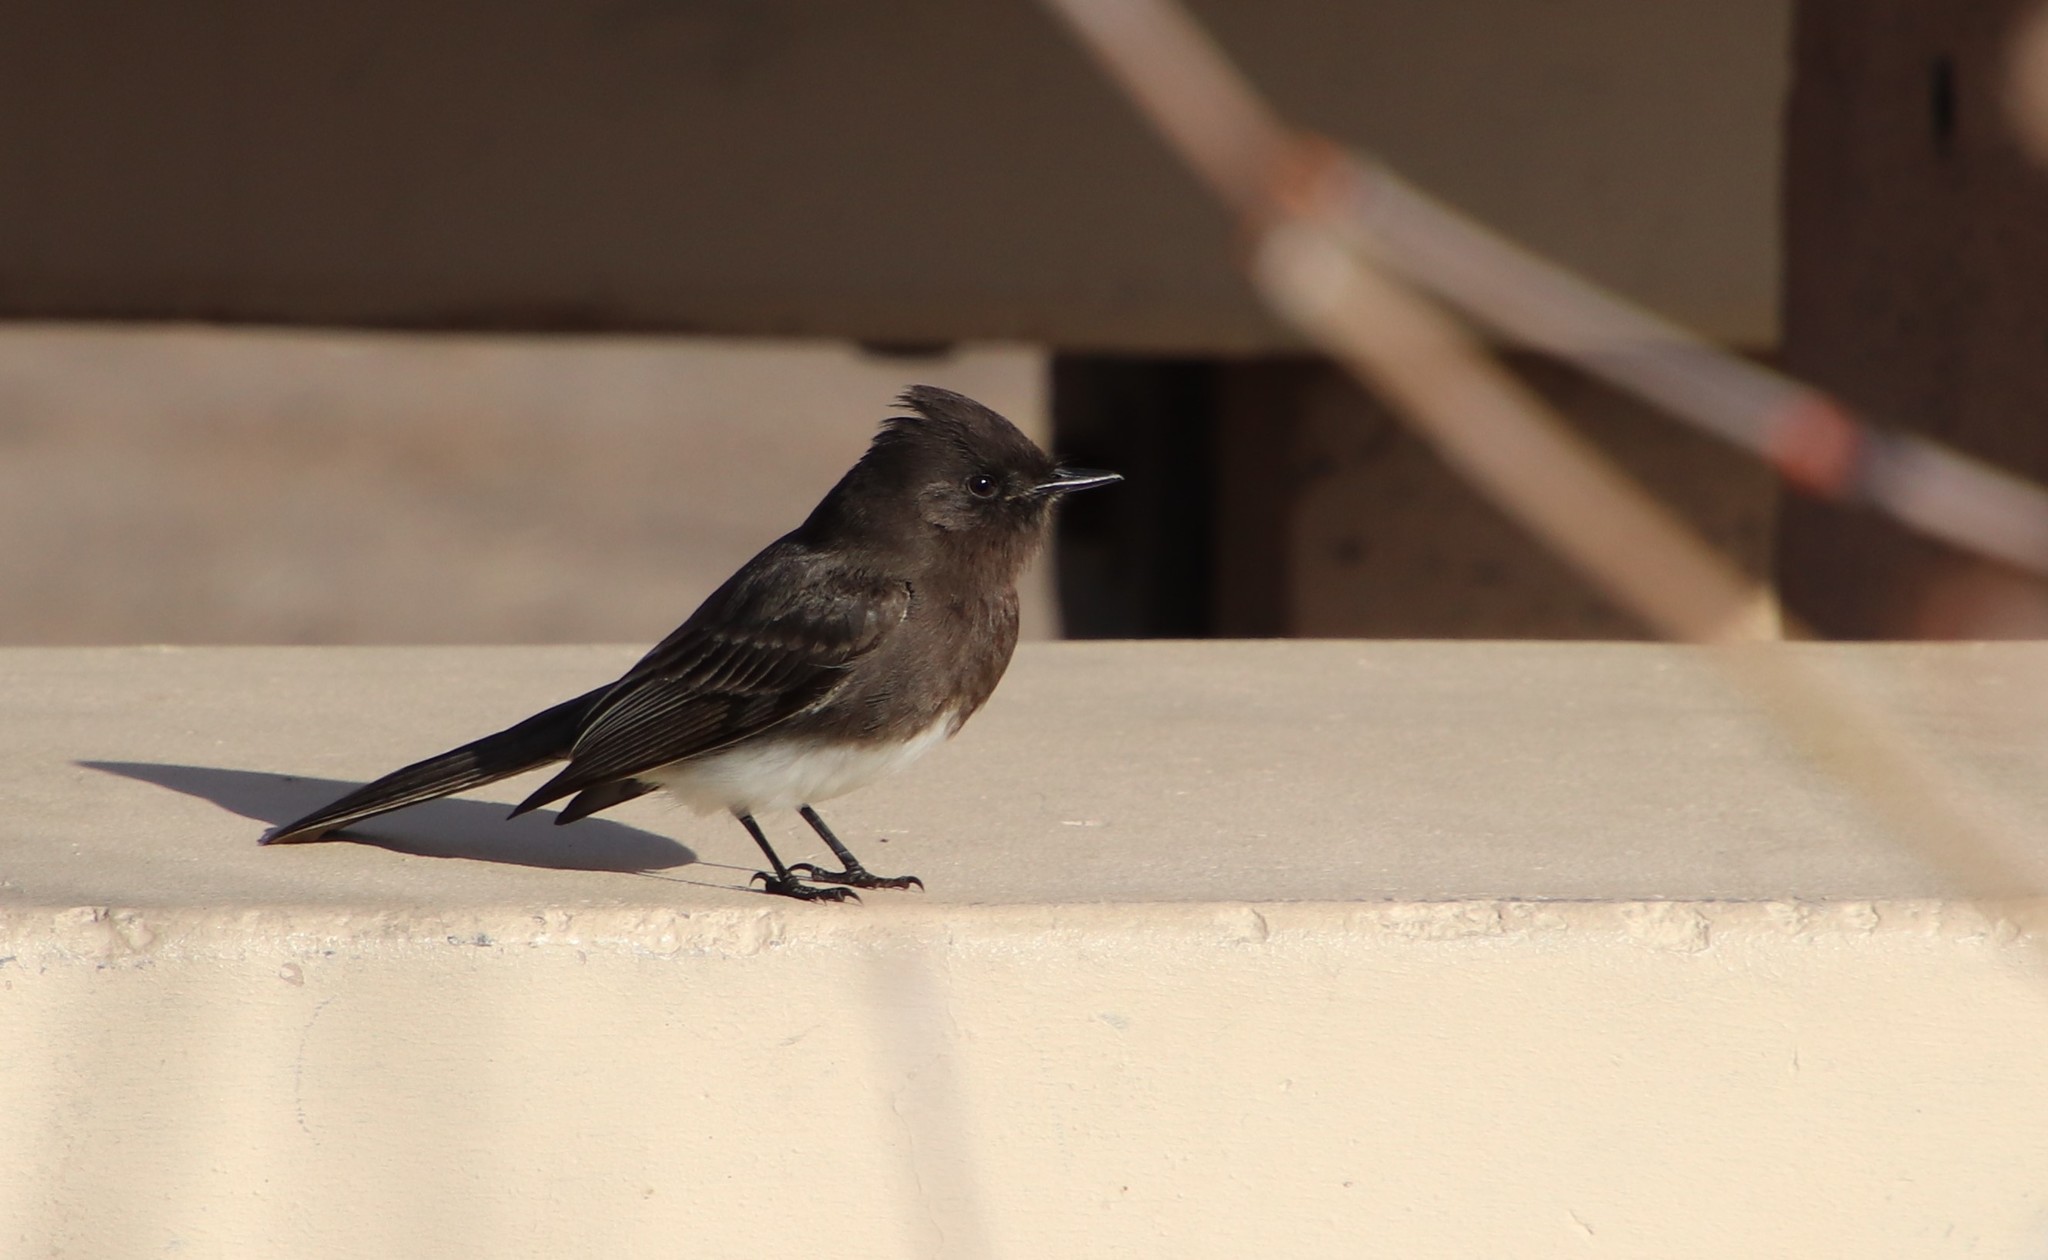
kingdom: Animalia
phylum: Chordata
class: Aves
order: Passeriformes
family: Tyrannidae
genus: Sayornis
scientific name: Sayornis nigricans
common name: Black phoebe
